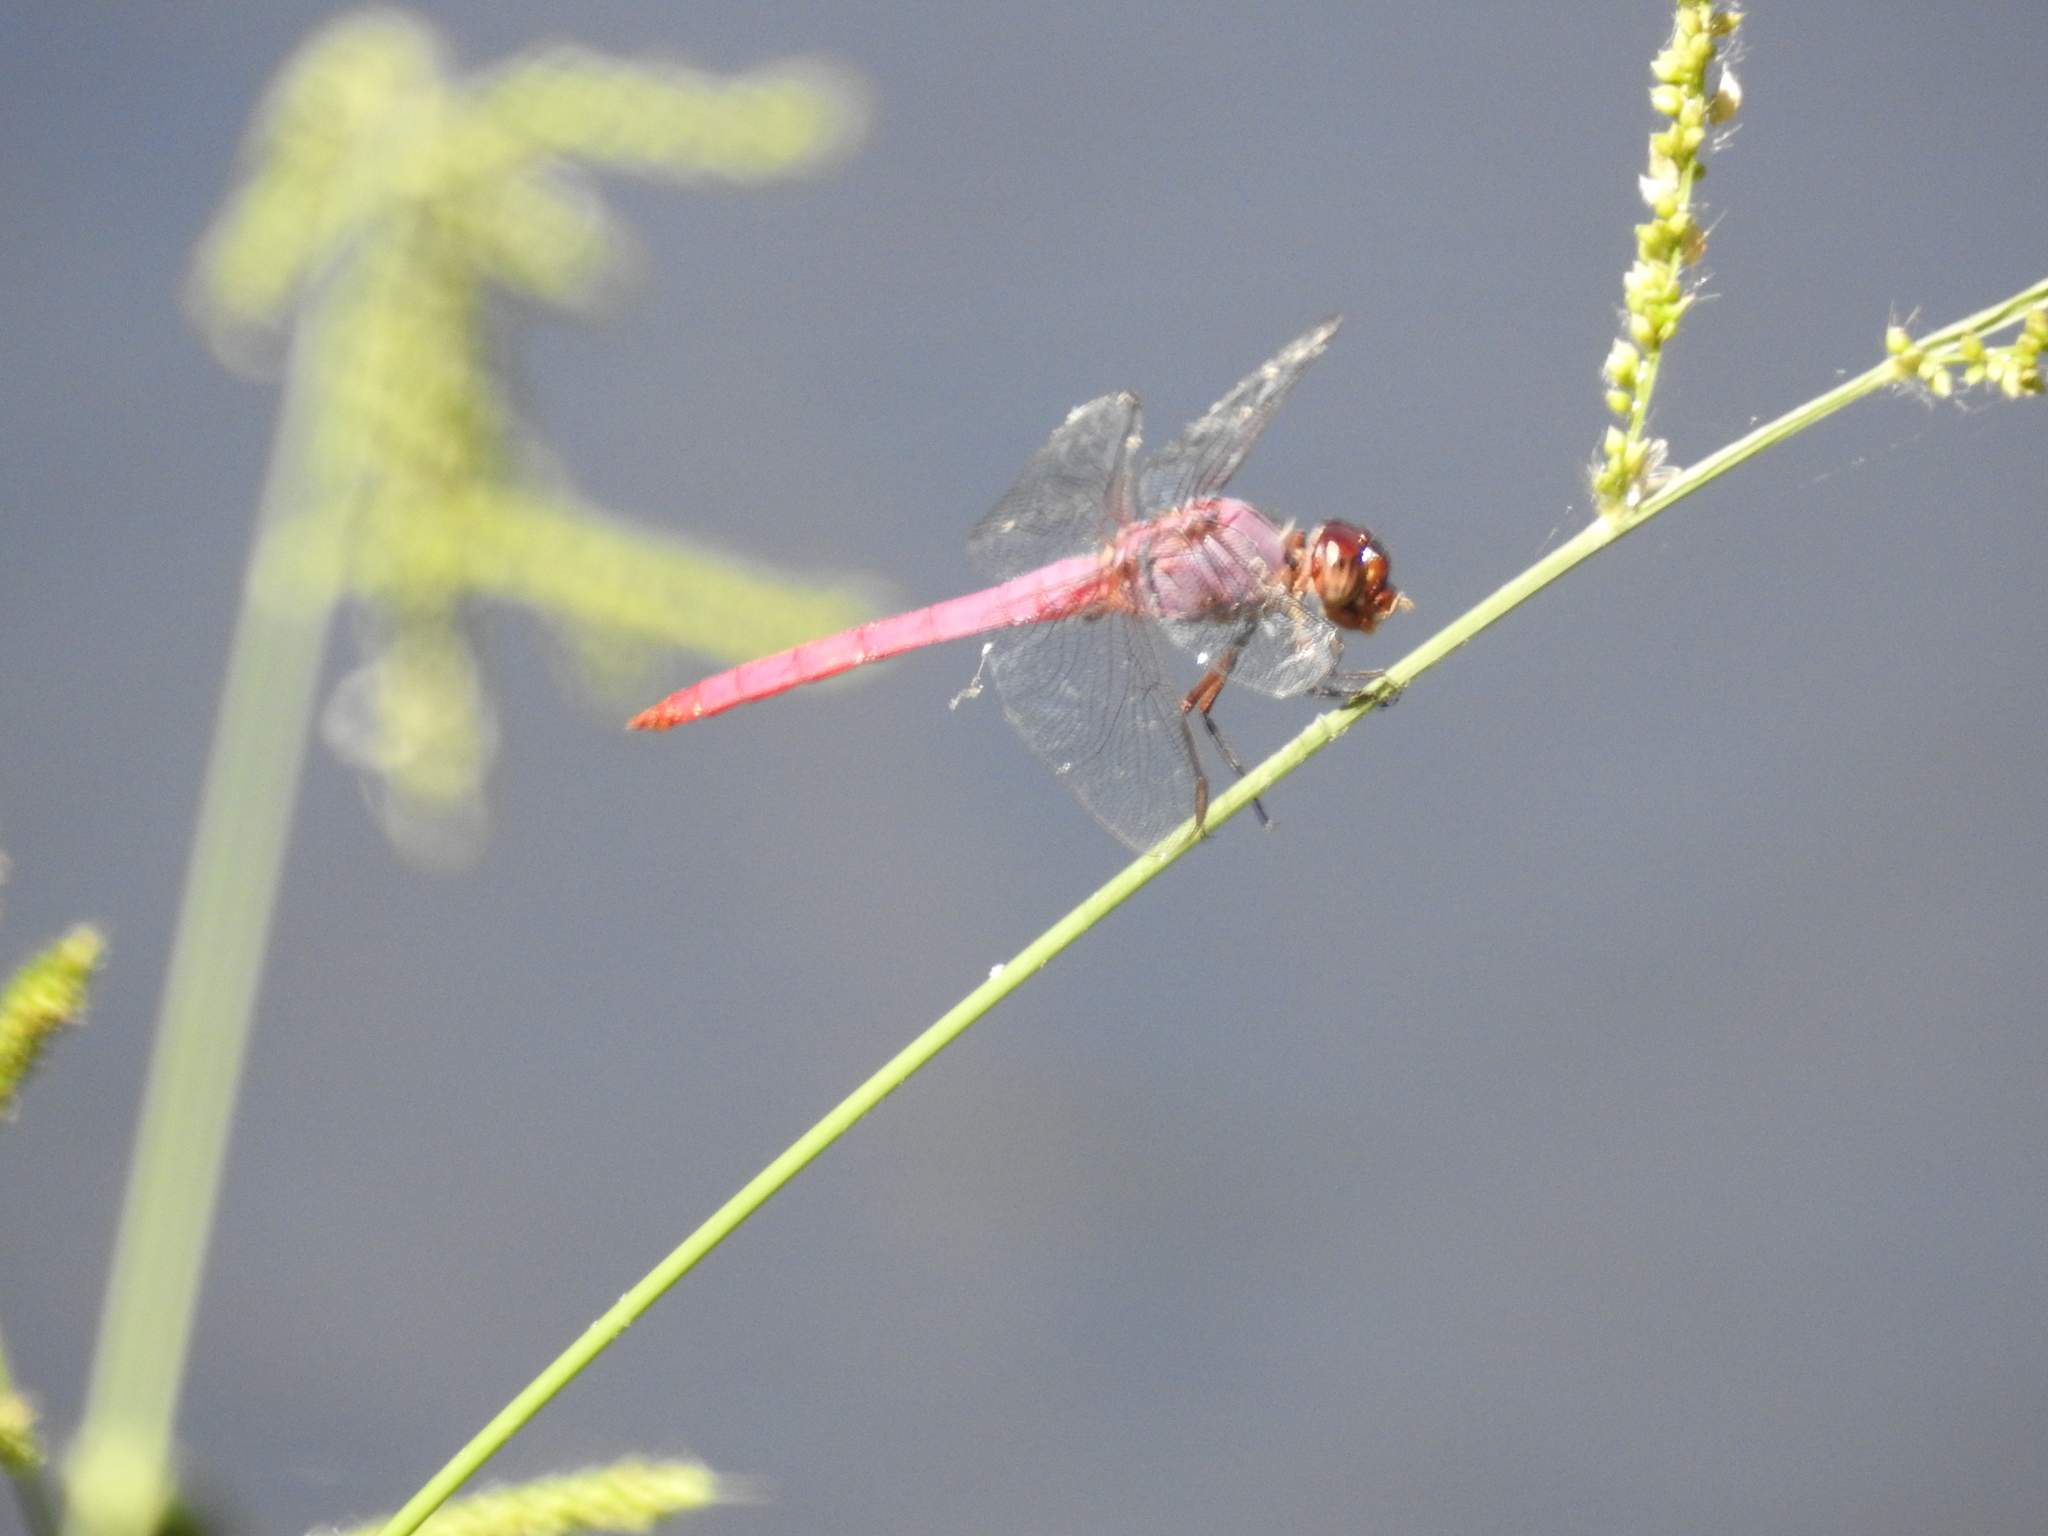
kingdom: Animalia
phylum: Arthropoda
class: Insecta
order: Odonata
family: Libellulidae
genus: Orthemis
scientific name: Orthemis ferruginea
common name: Roseate skimmer
